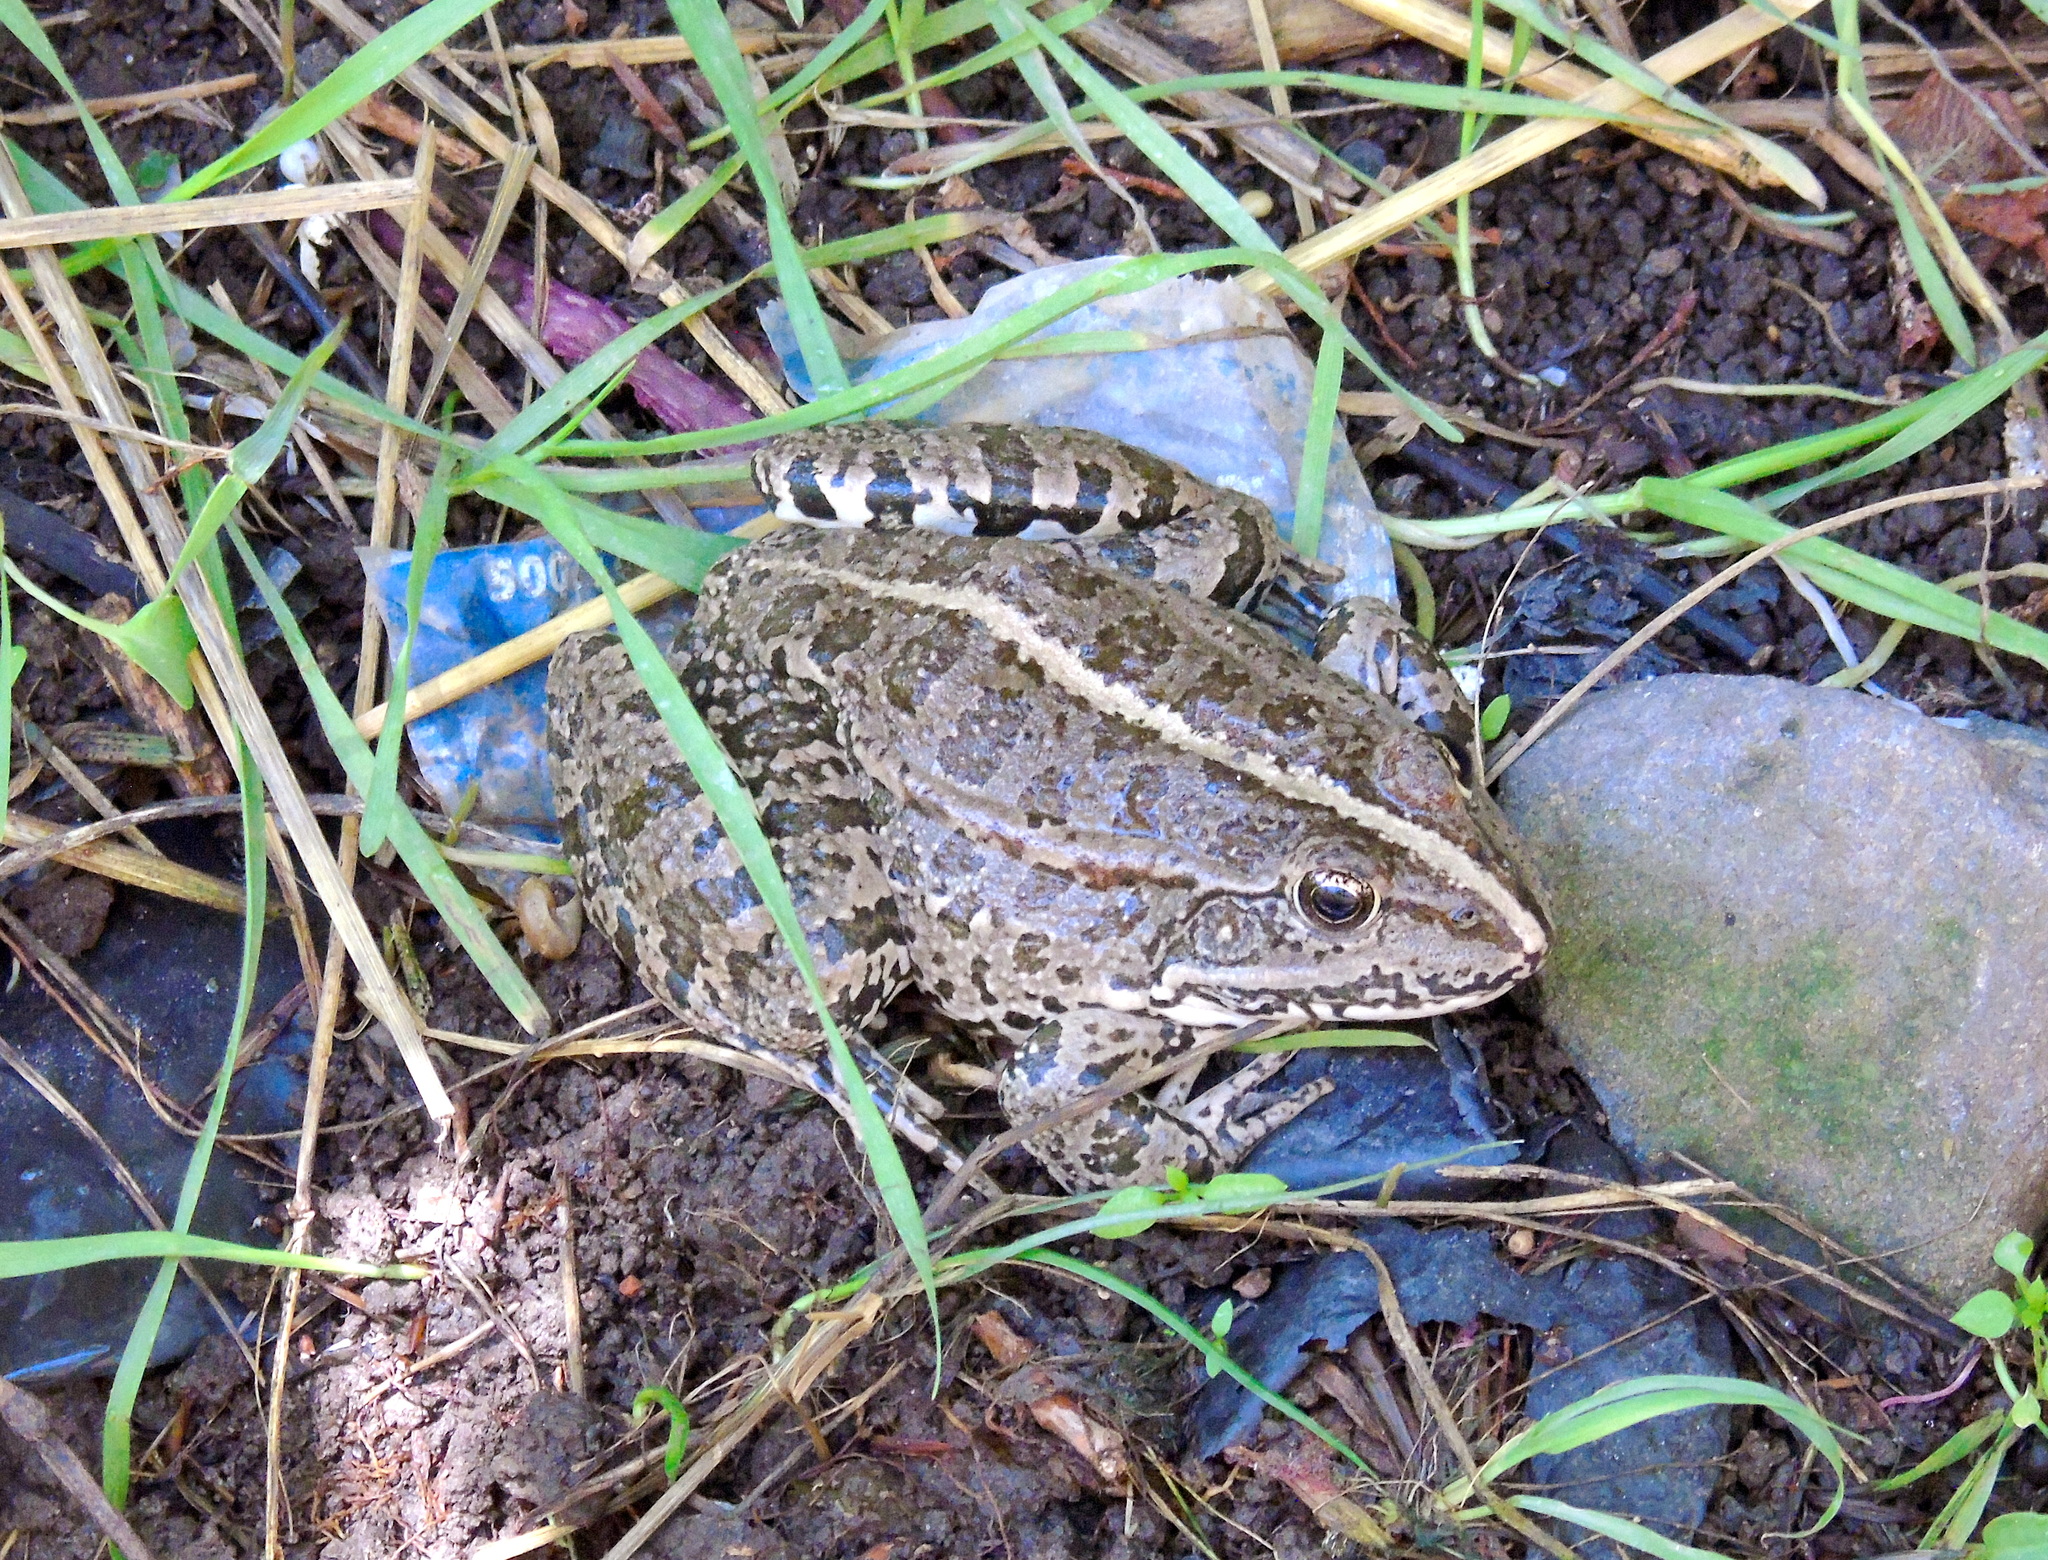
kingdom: Animalia
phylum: Chordata
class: Amphibia
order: Anura
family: Ranidae
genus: Pelophylax
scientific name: Pelophylax ridibundus
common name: Marsh frog
